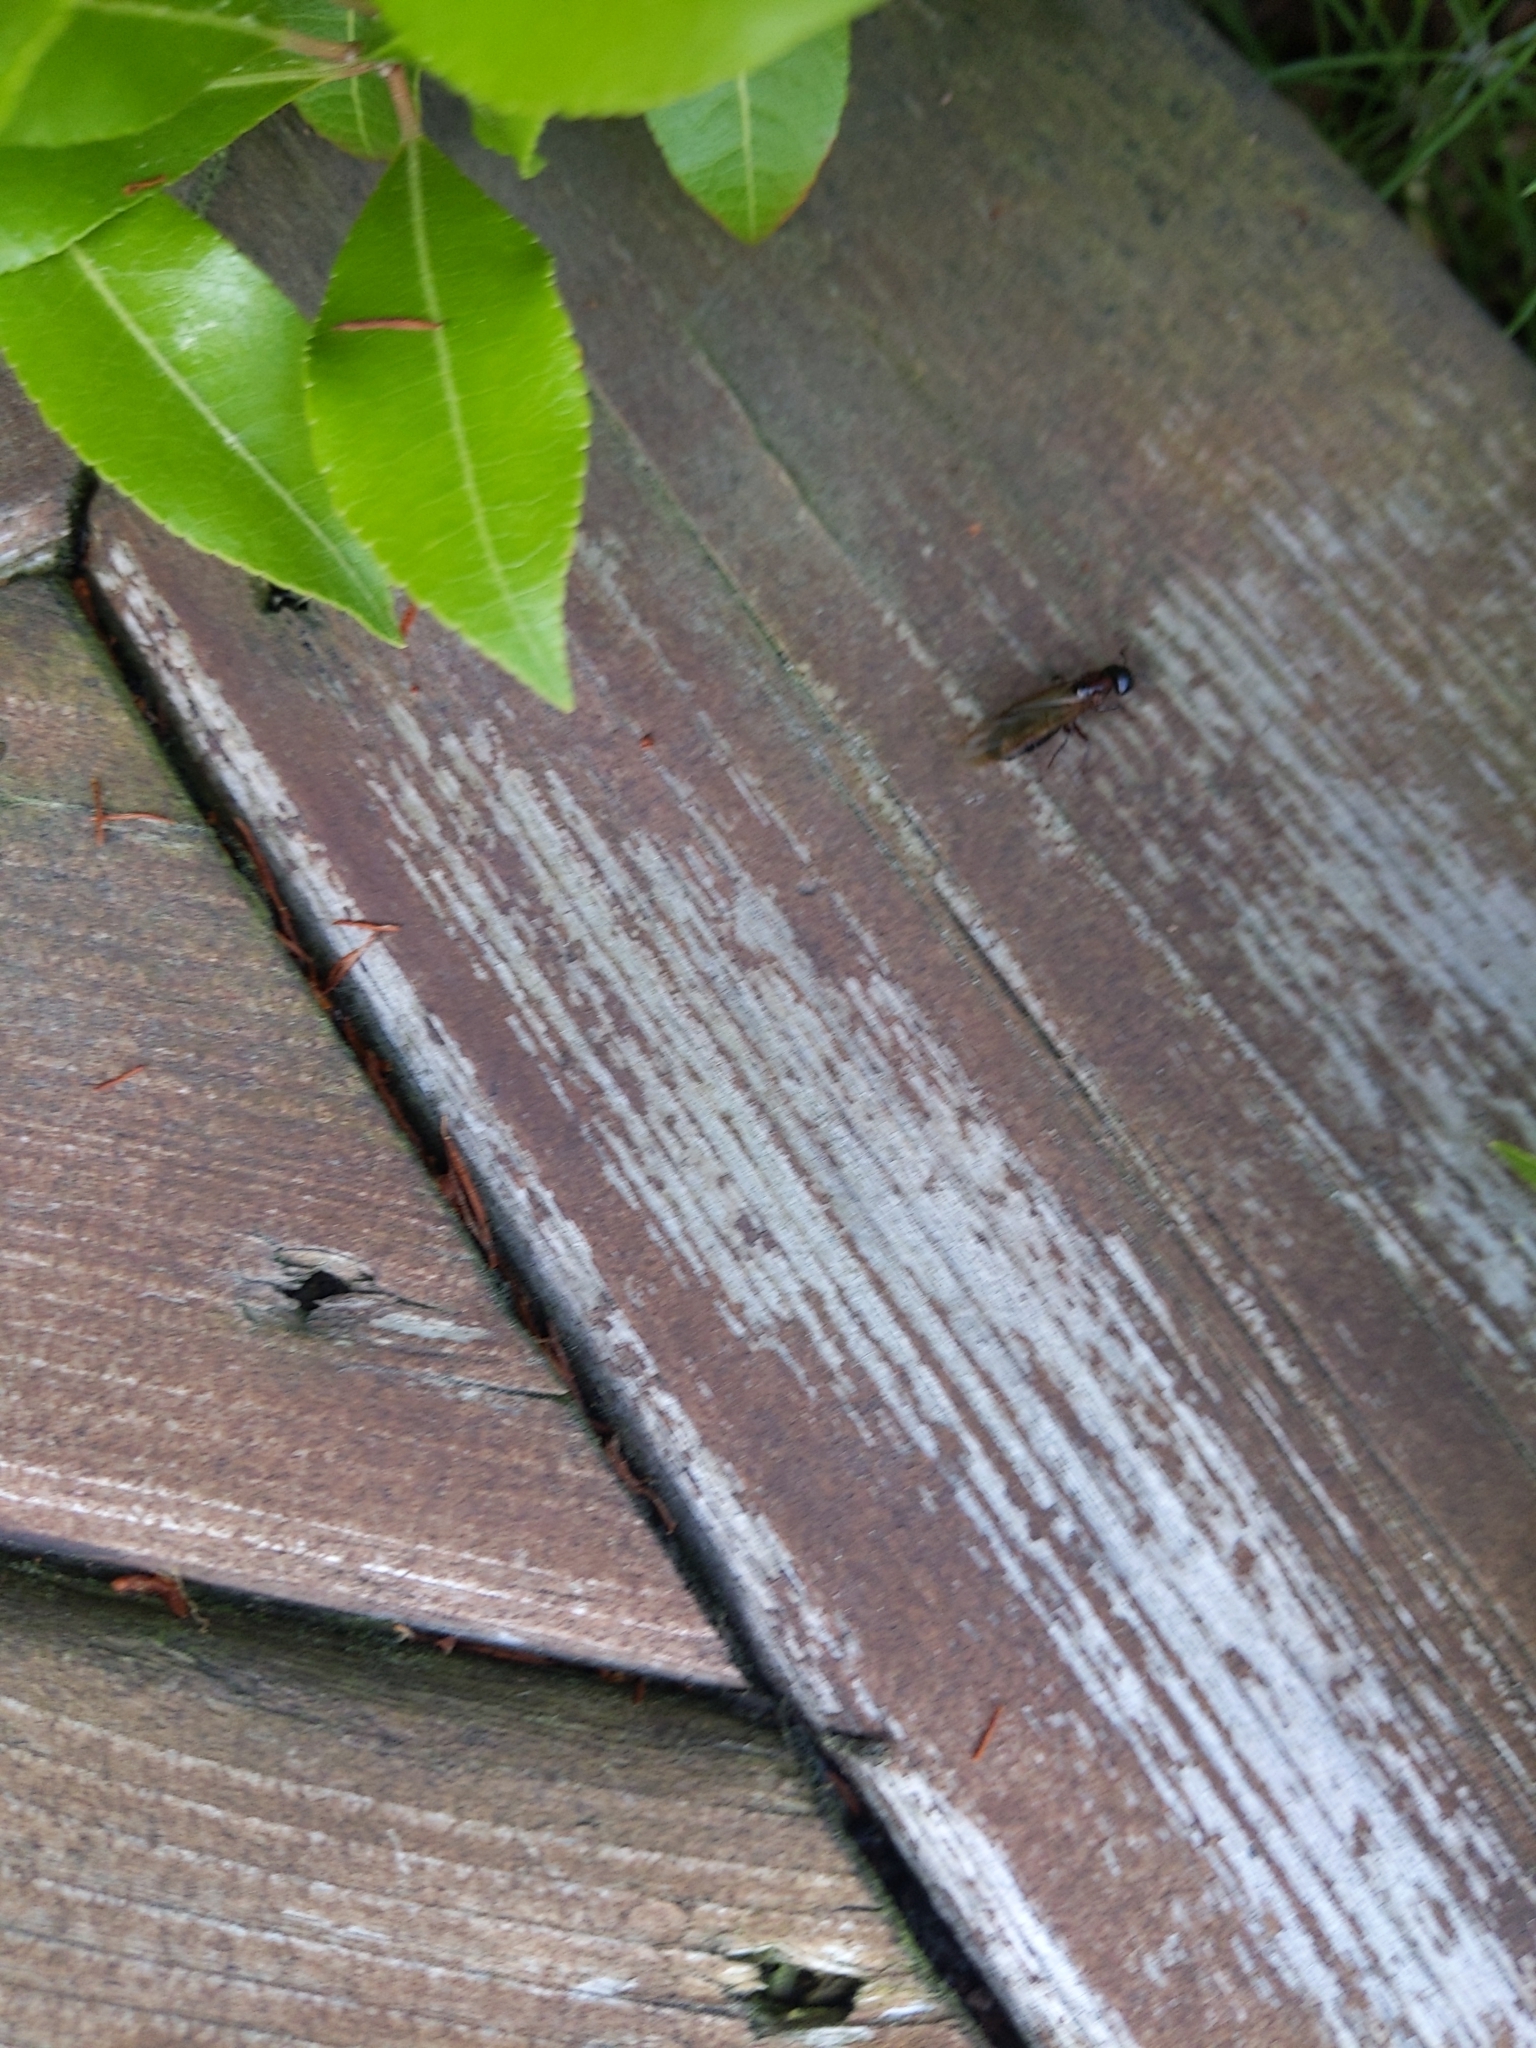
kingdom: Animalia
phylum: Arthropoda
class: Insecta
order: Hymenoptera
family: Formicidae
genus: Camponotus
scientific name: Camponotus novaeboracensis
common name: New york carpenter ant
